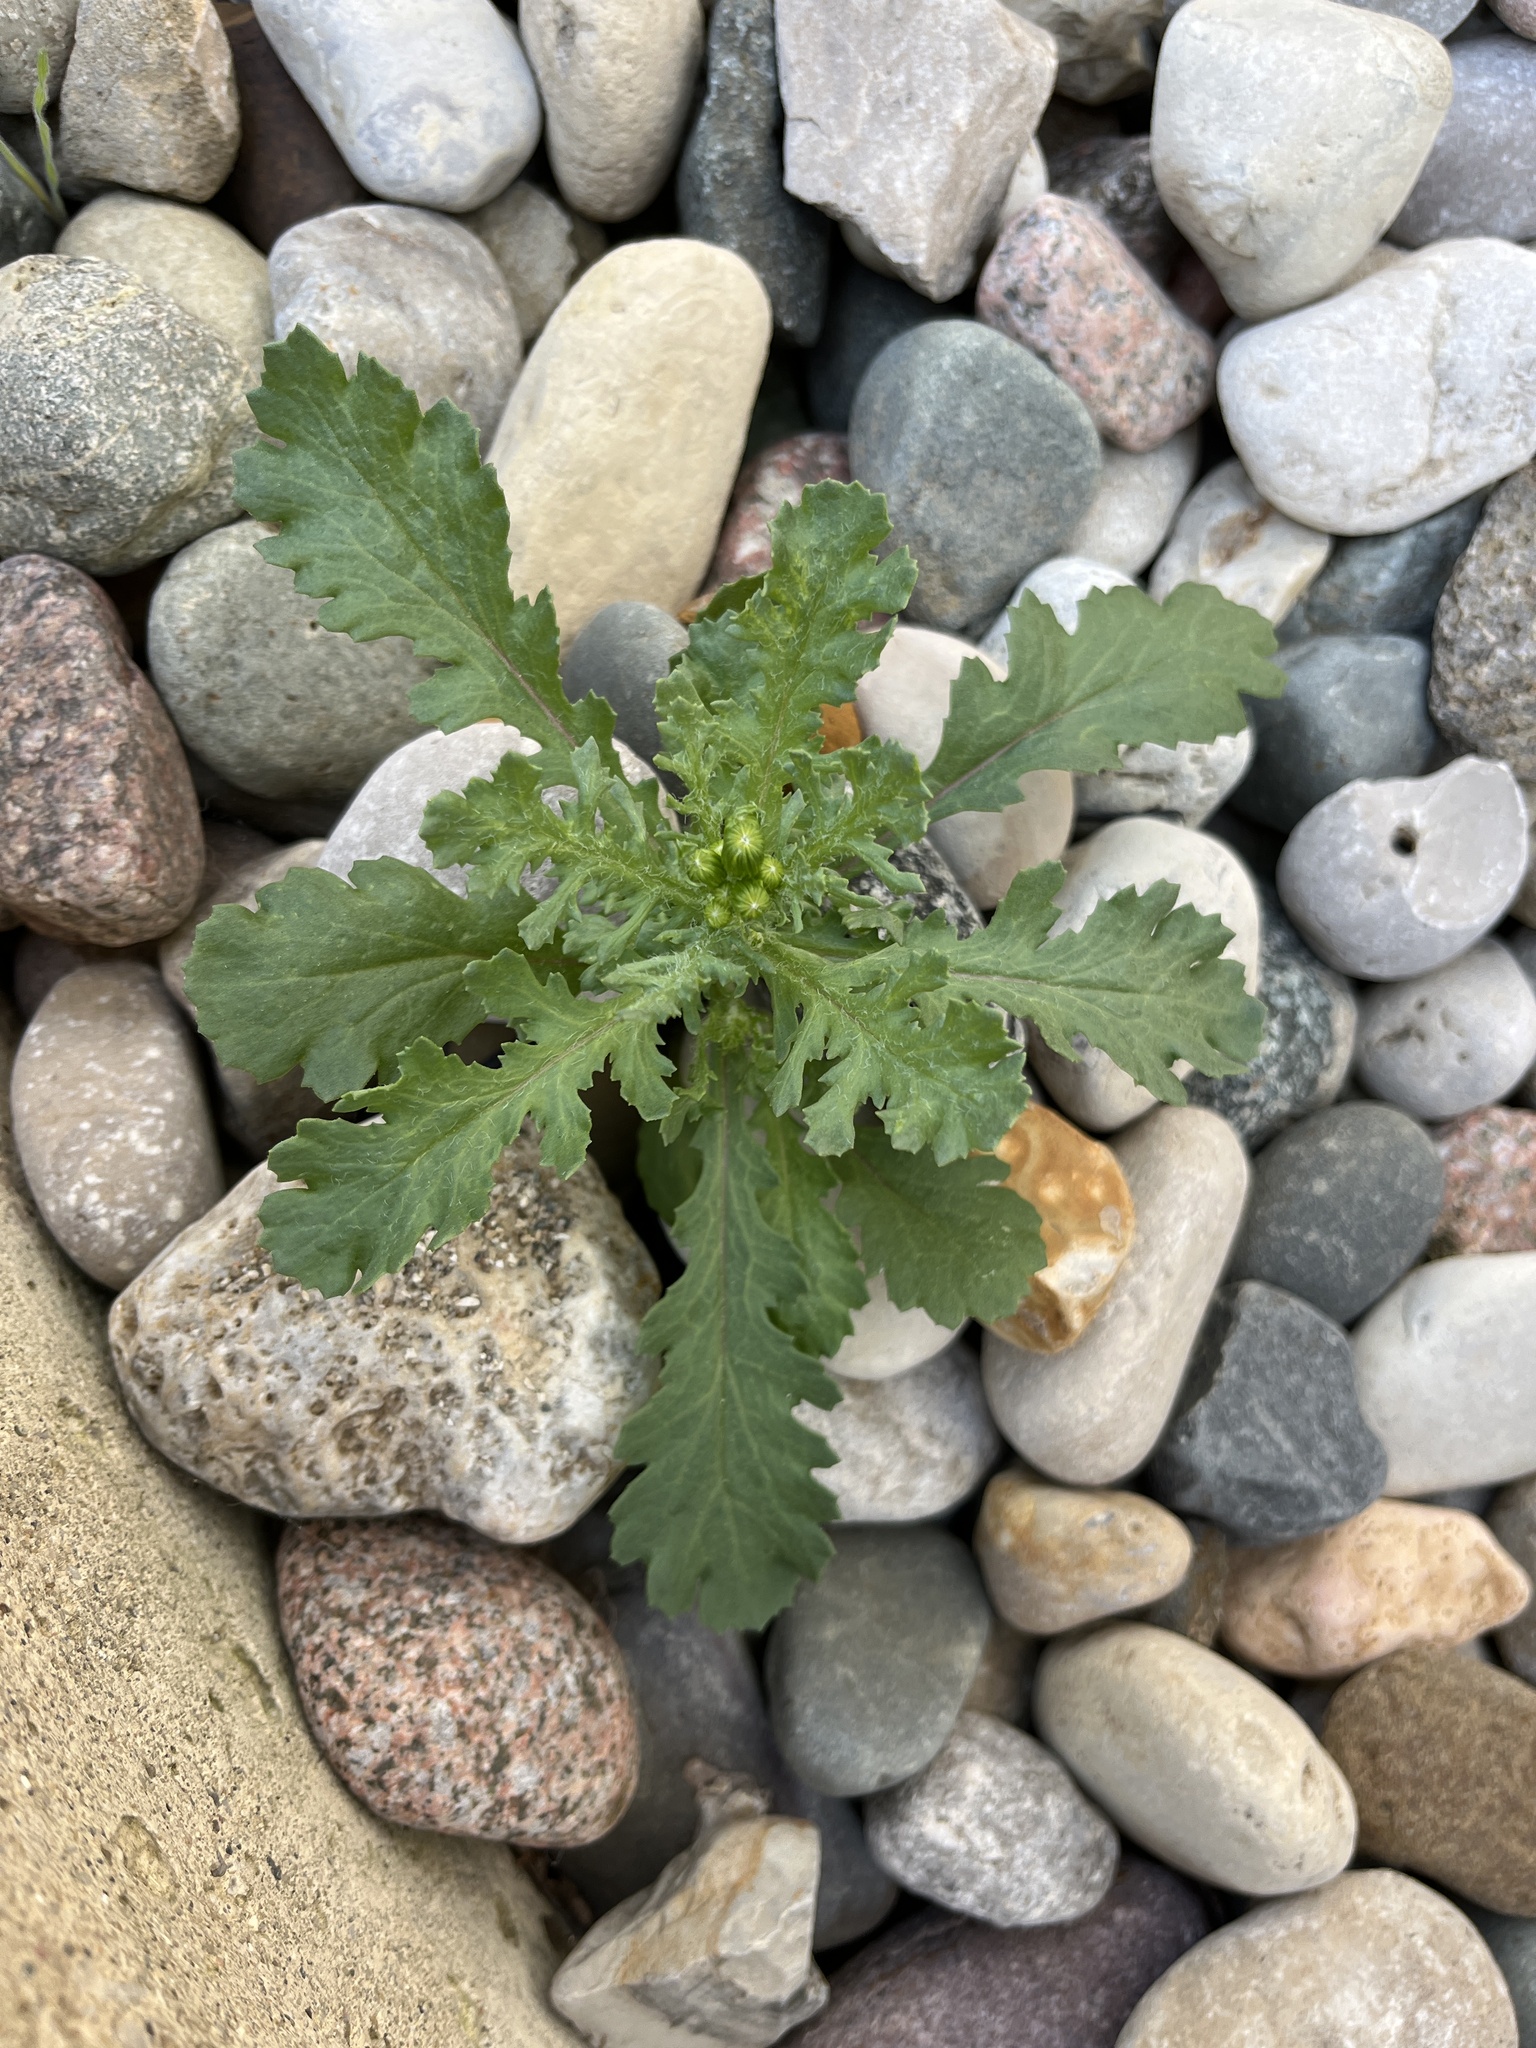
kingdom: Plantae
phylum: Tracheophyta
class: Magnoliopsida
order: Asterales
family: Asteraceae
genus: Senecio
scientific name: Senecio vulgaris
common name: Old-man-in-the-spring
